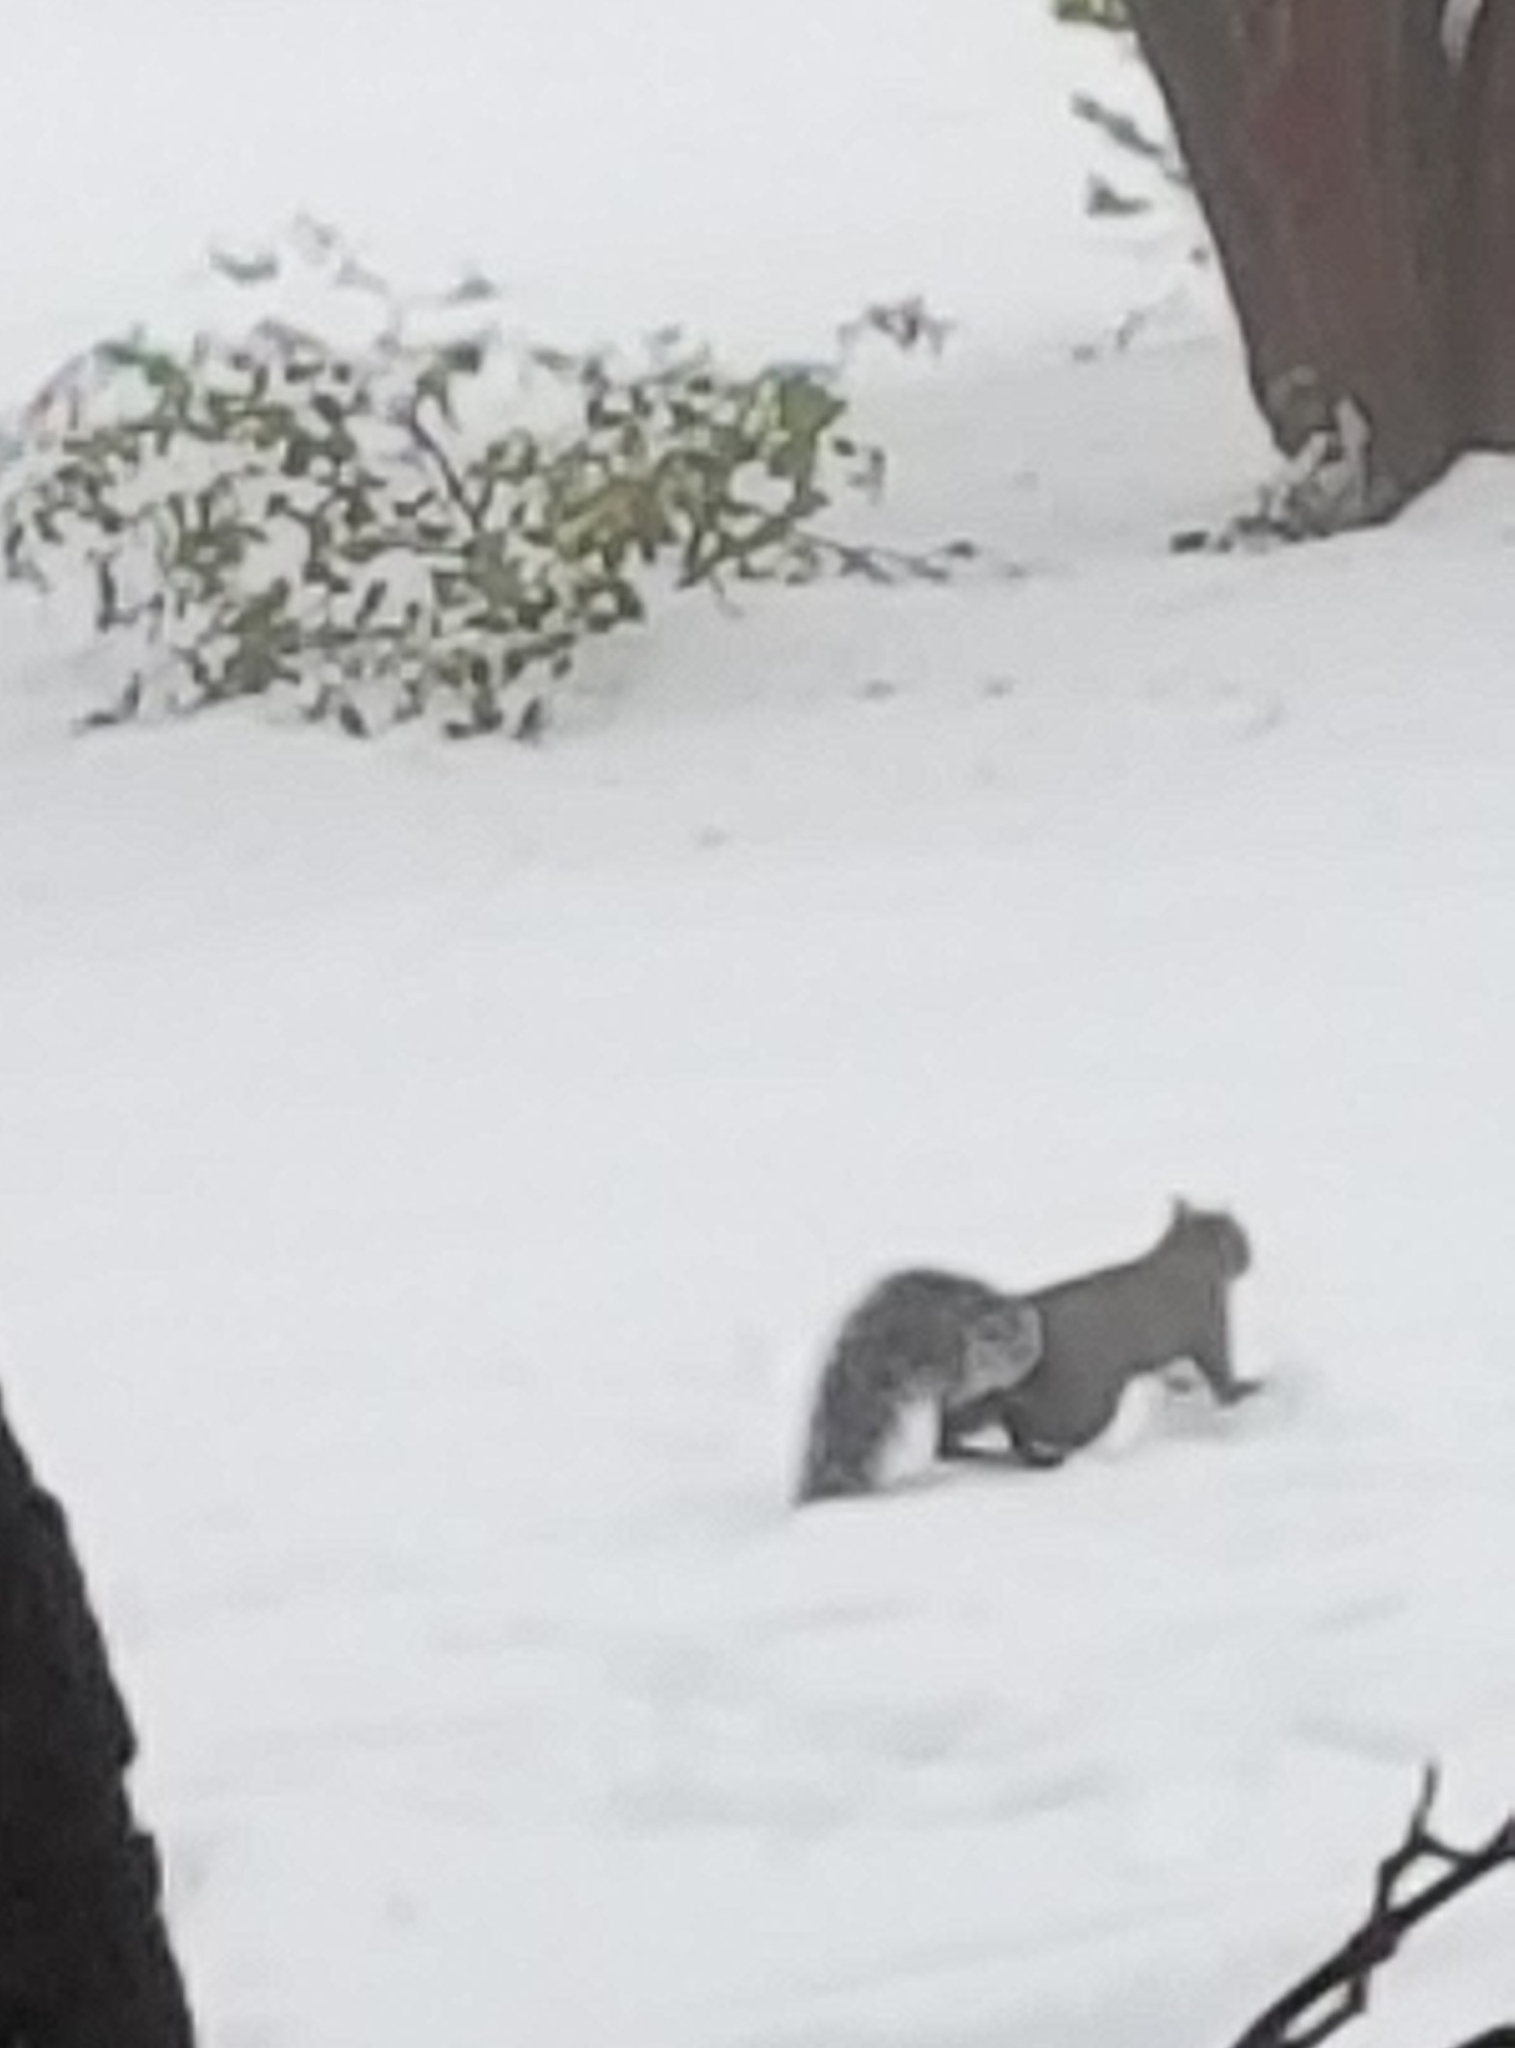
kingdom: Animalia
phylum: Chordata
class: Mammalia
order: Rodentia
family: Sciuridae
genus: Sciurus
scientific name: Sciurus griseus
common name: Western gray squirrel
